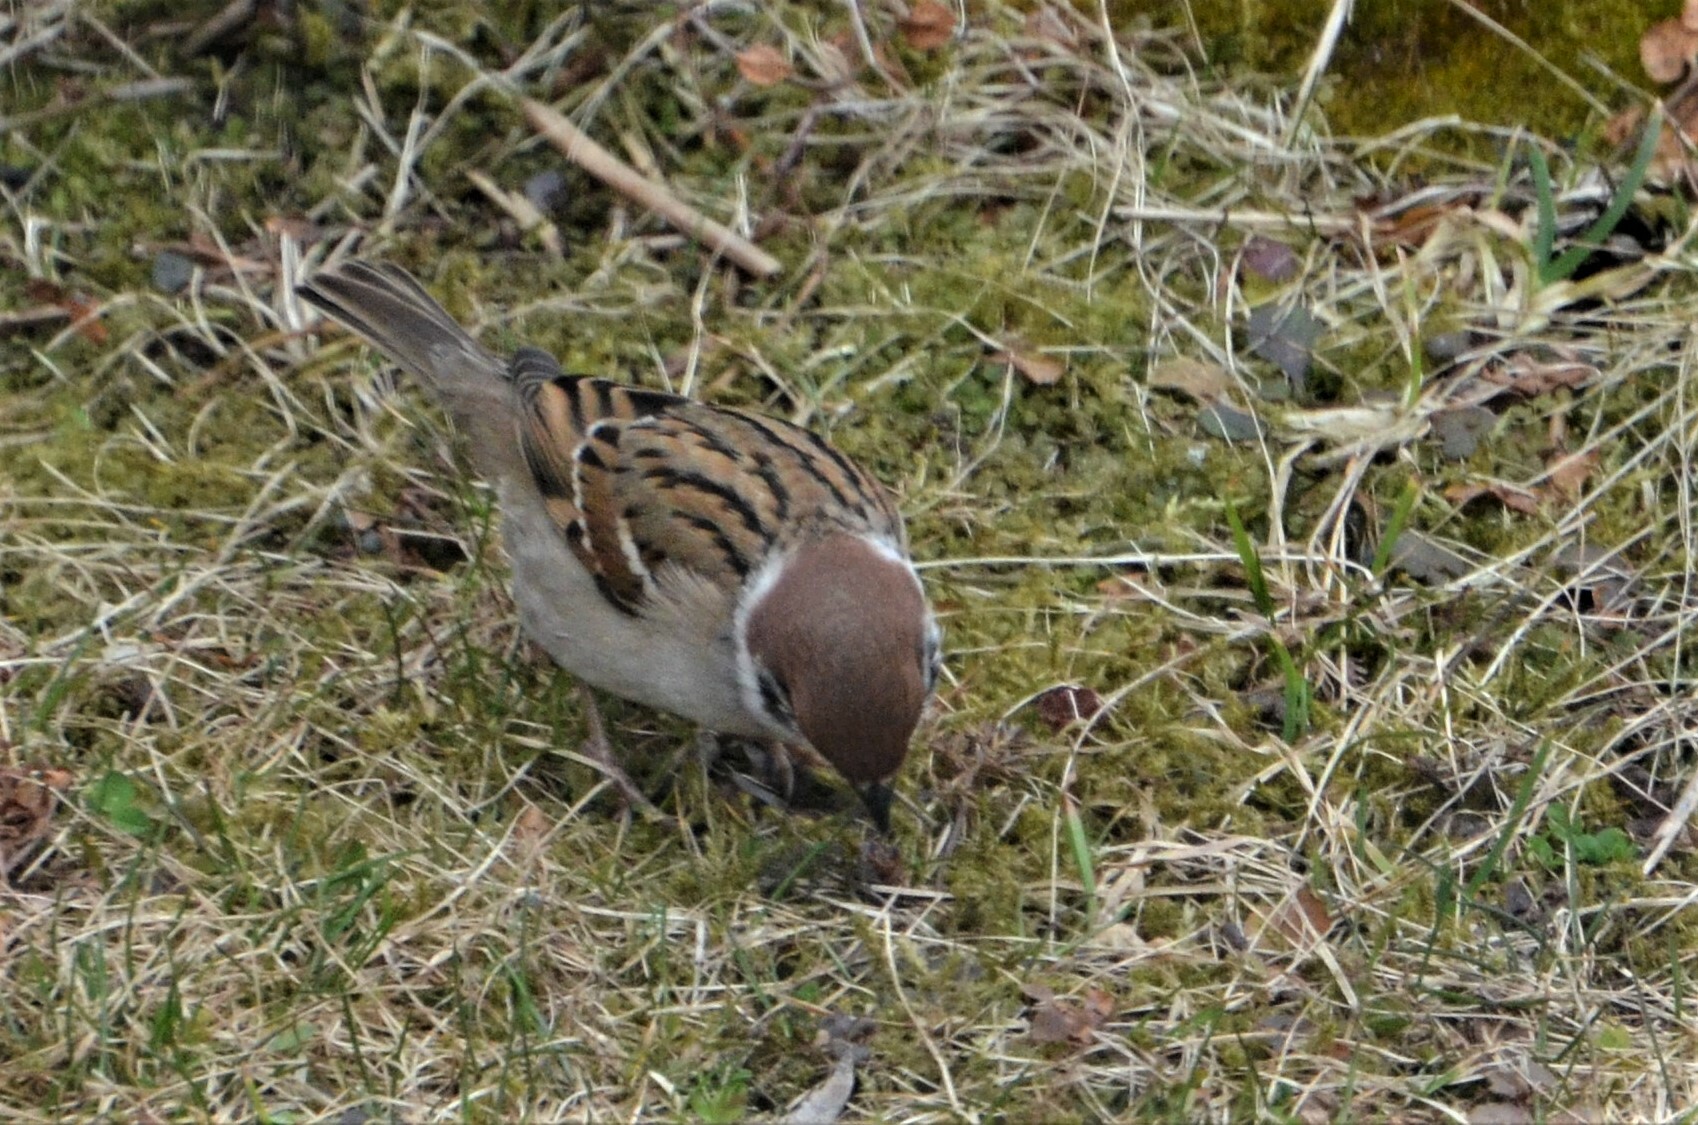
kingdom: Animalia
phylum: Chordata
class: Aves
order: Passeriformes
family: Passeridae
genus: Passer
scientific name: Passer montanus
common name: Eurasian tree sparrow
